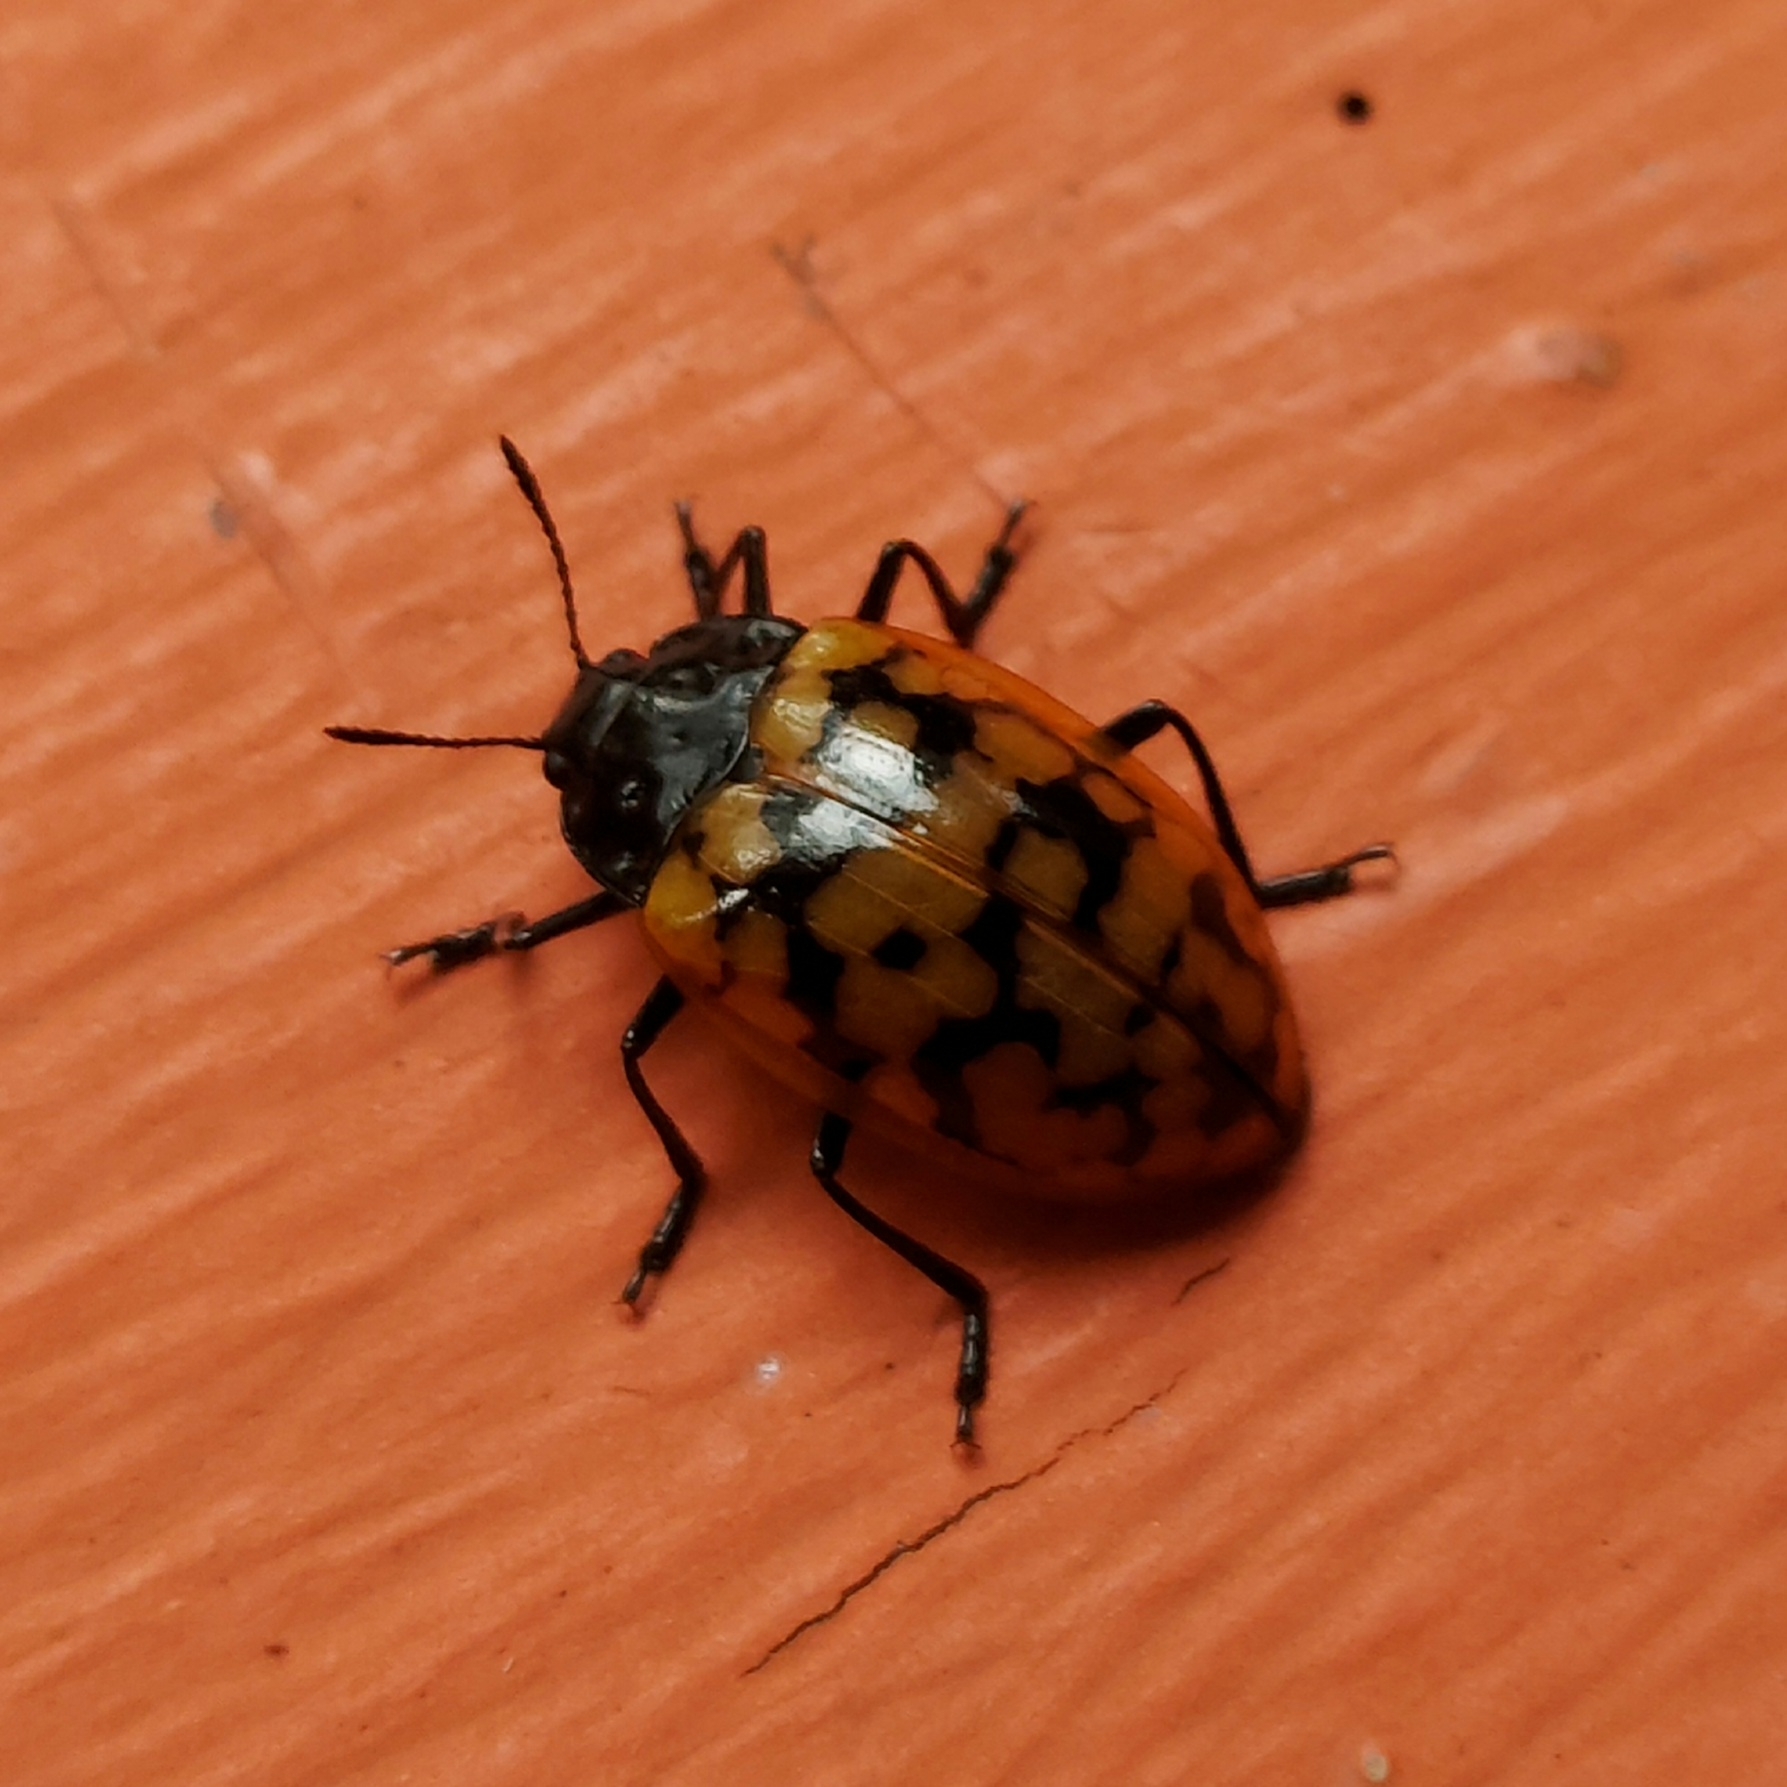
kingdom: Animalia
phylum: Arthropoda
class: Insecta
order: Coleoptera
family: Erotylidae
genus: Erotylina
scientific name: Erotylina
